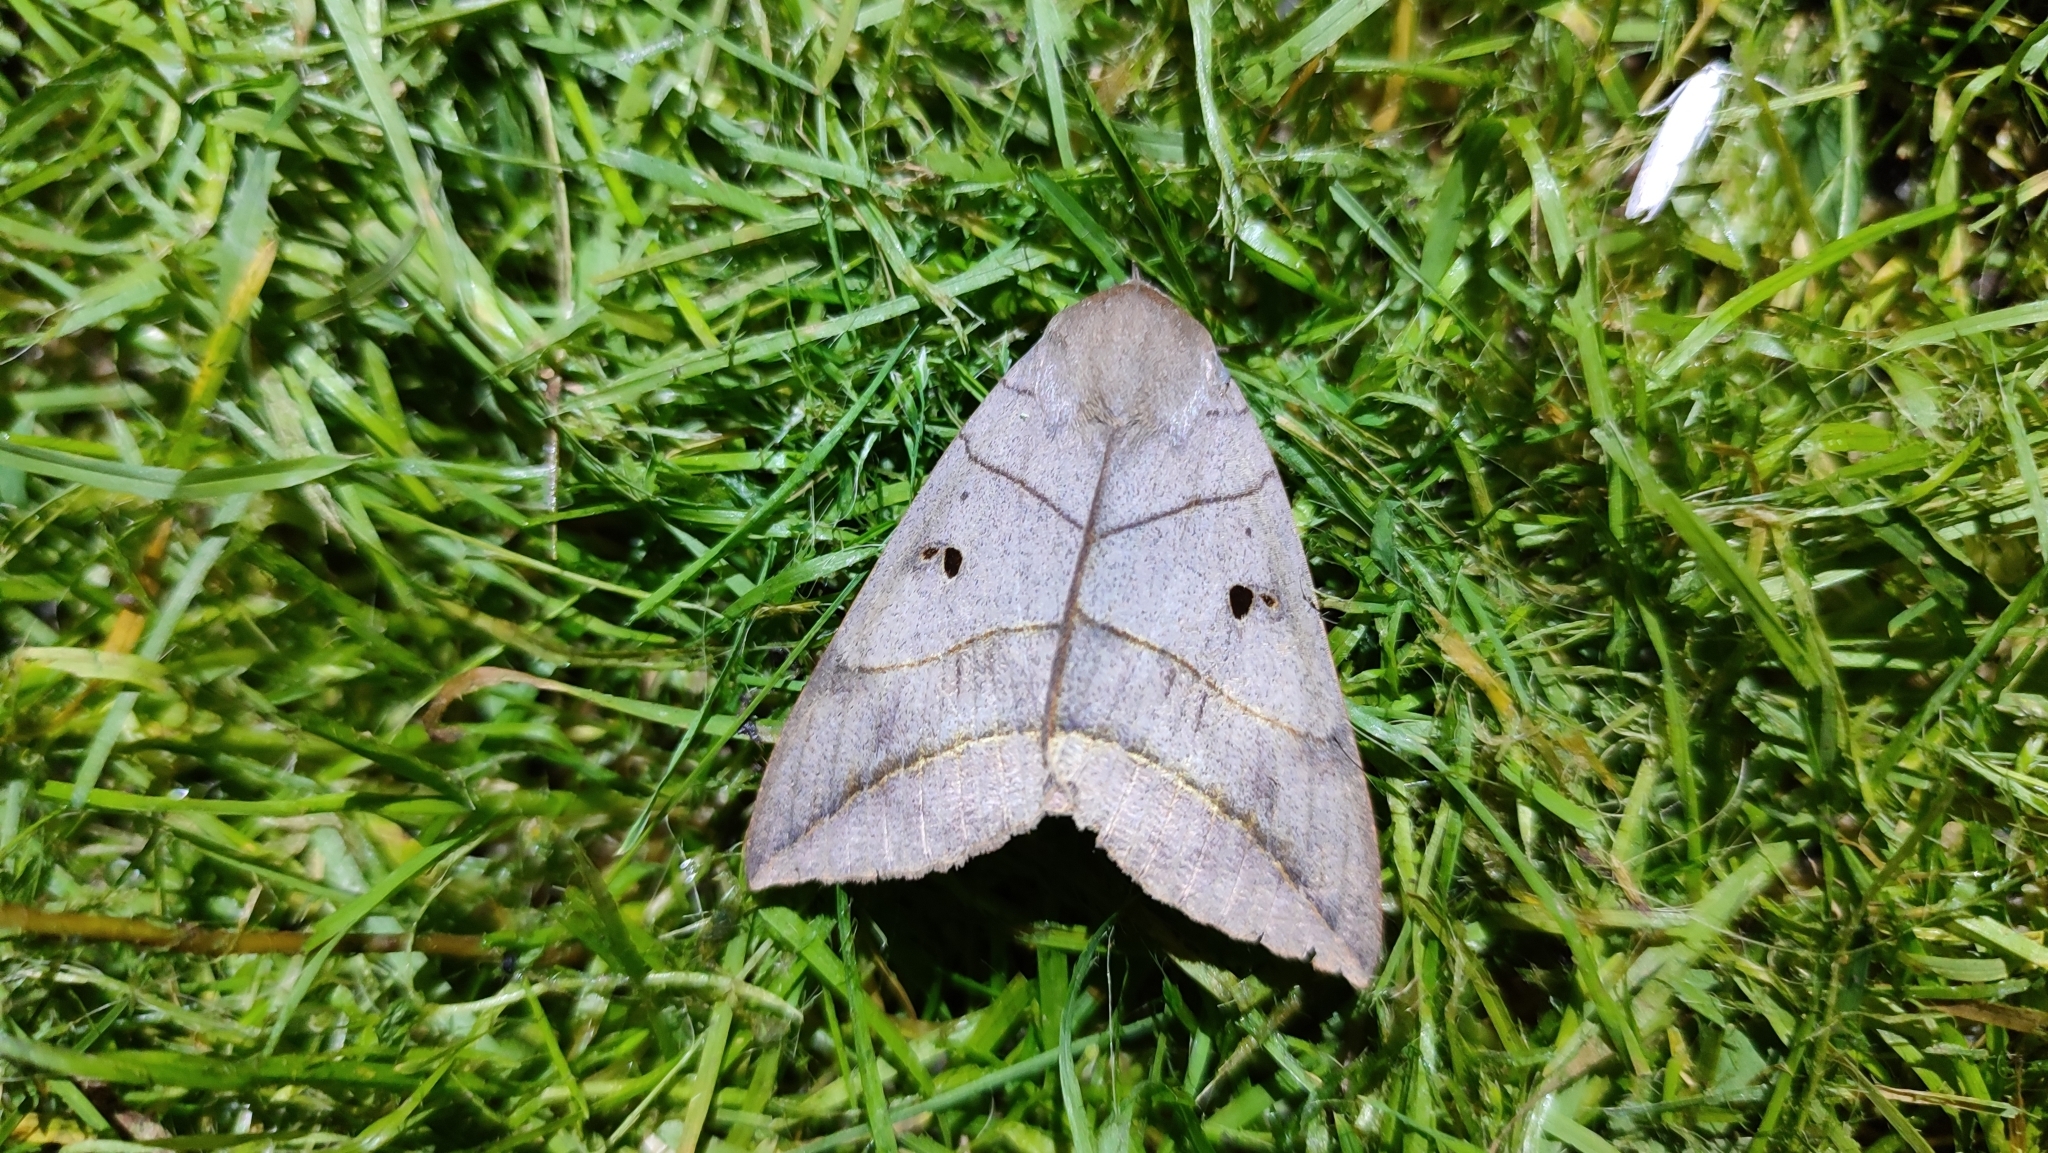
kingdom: Animalia
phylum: Arthropoda
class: Insecta
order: Lepidoptera
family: Erebidae
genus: Thyas
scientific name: Thyas juno
